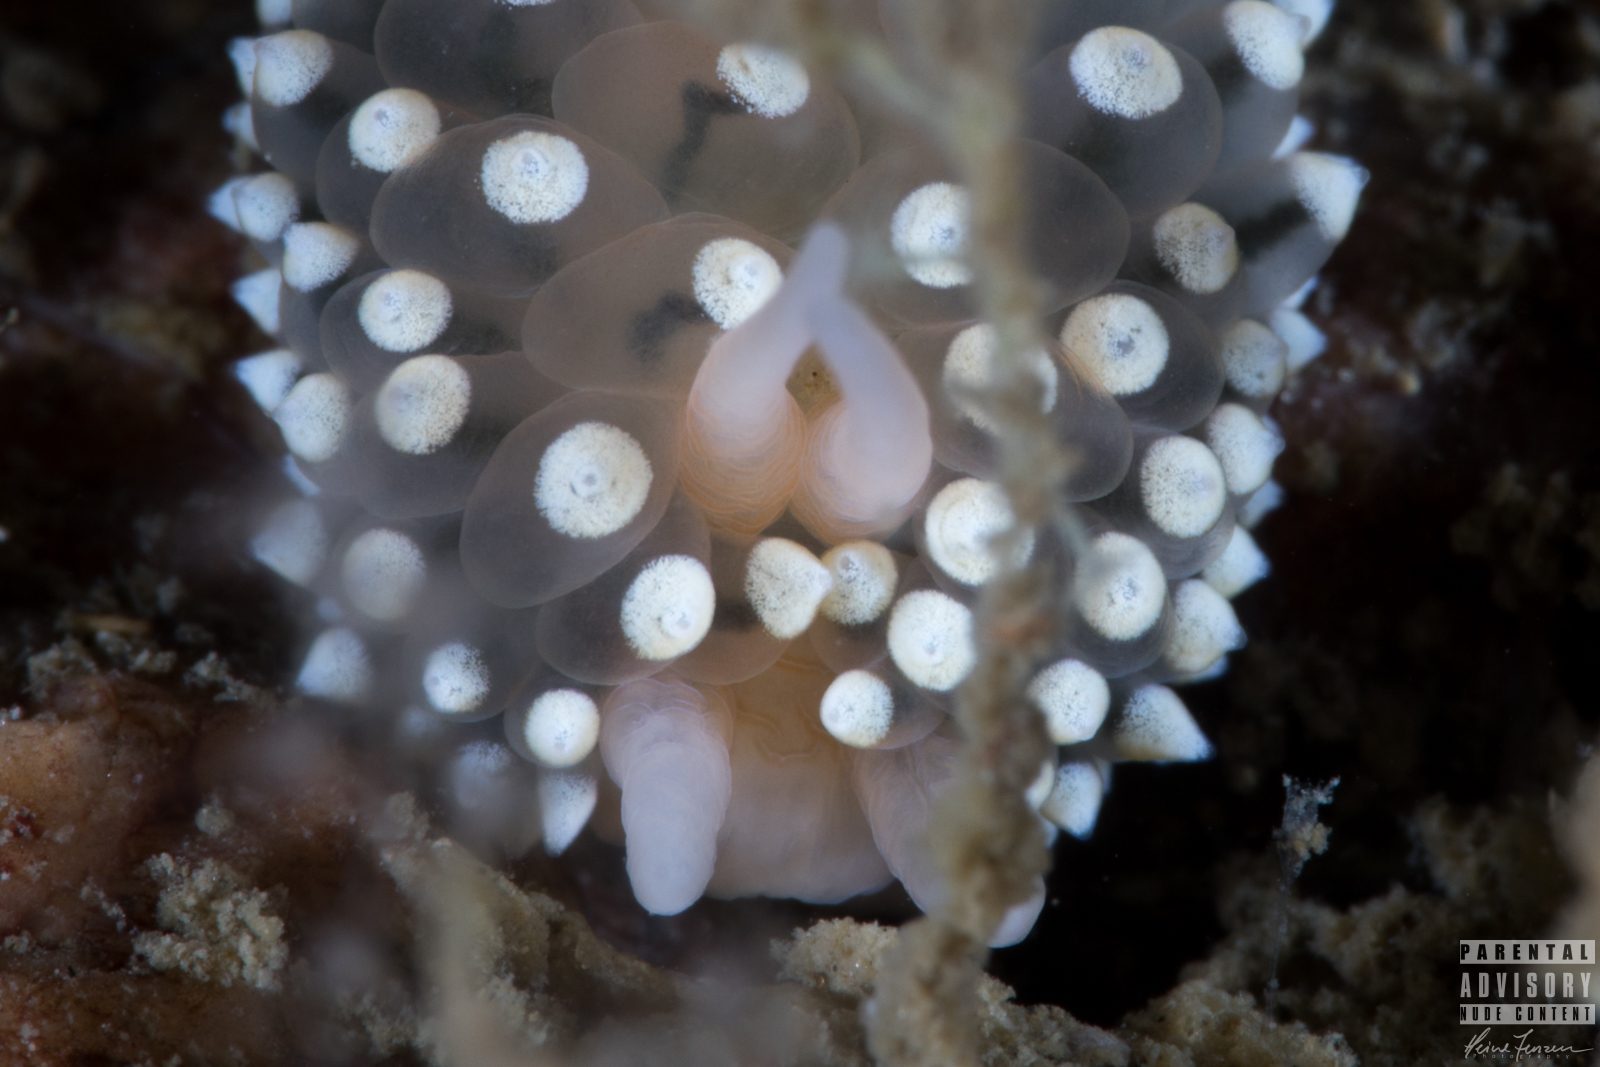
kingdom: Animalia
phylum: Mollusca
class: Gastropoda
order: Nudibranchia
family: Eubranchidae
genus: Eubranchus
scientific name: Eubranchus tricolor
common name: Painted balloon aeolis
